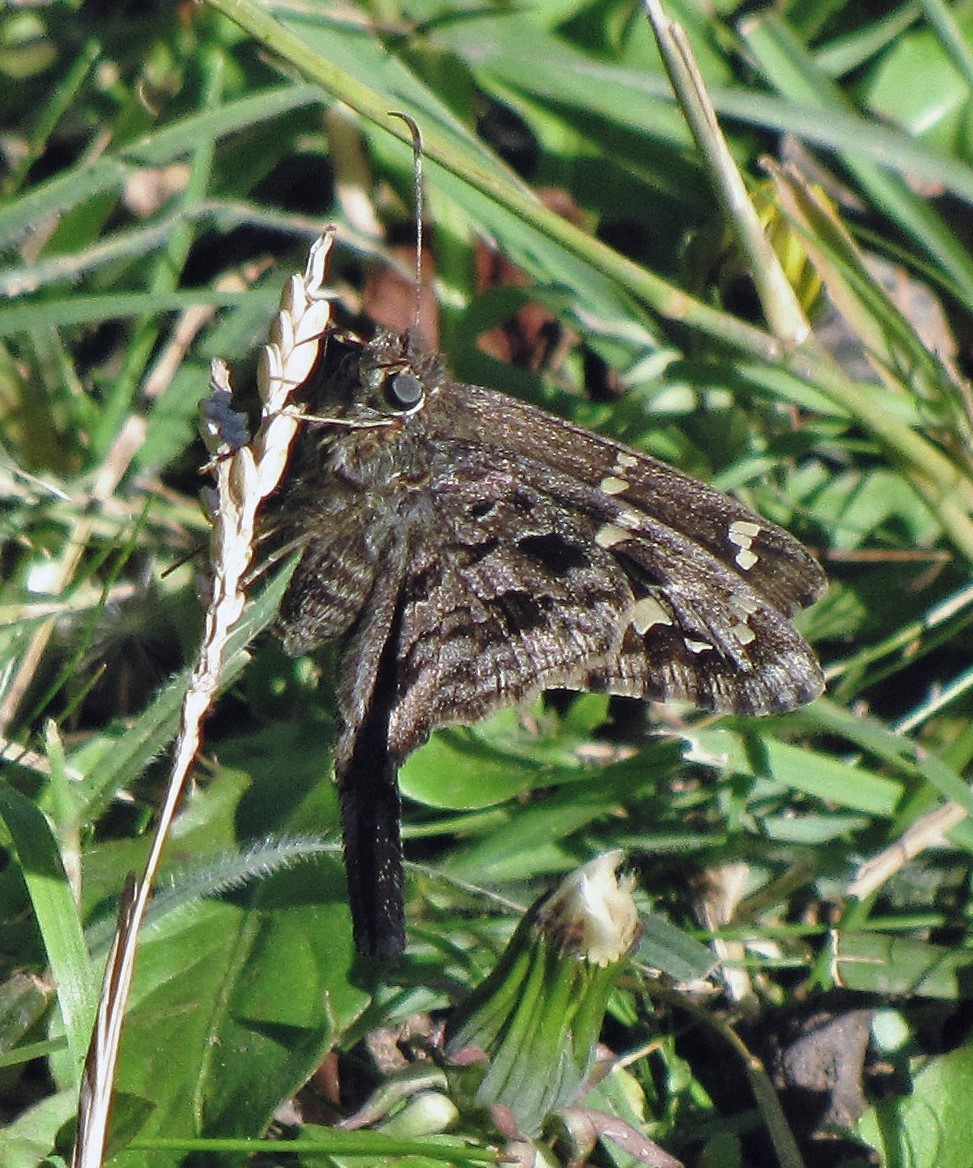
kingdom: Animalia
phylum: Arthropoda
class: Insecta
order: Lepidoptera
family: Hesperiidae
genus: Thorybes
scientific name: Thorybes
